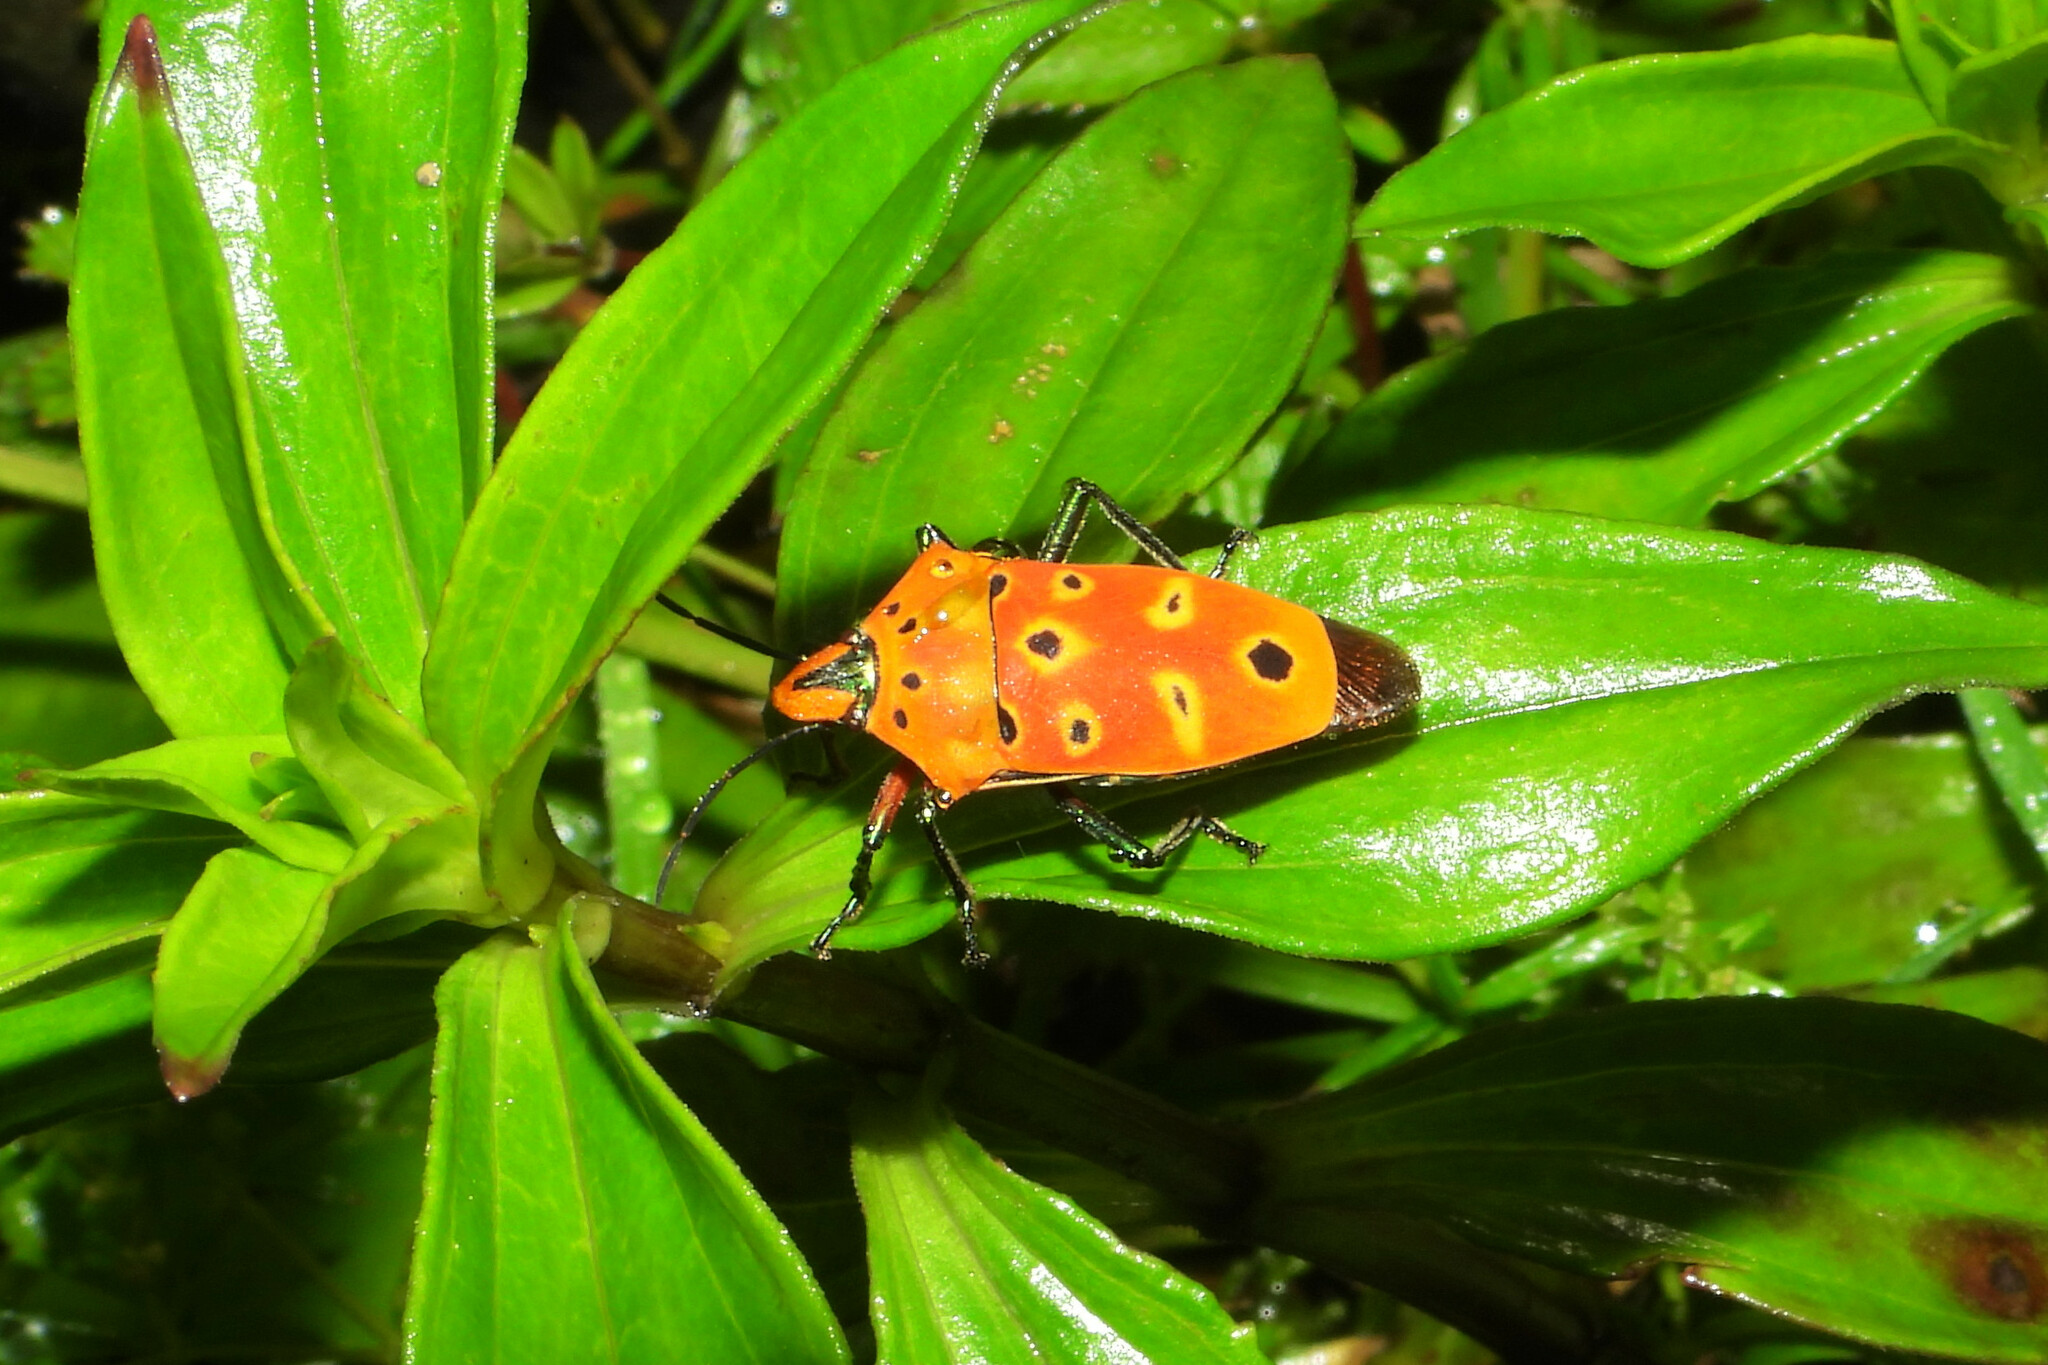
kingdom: Animalia
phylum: Arthropoda
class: Insecta
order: Hemiptera
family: Scutelleridae
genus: Cantao
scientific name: Cantao ocellatus
